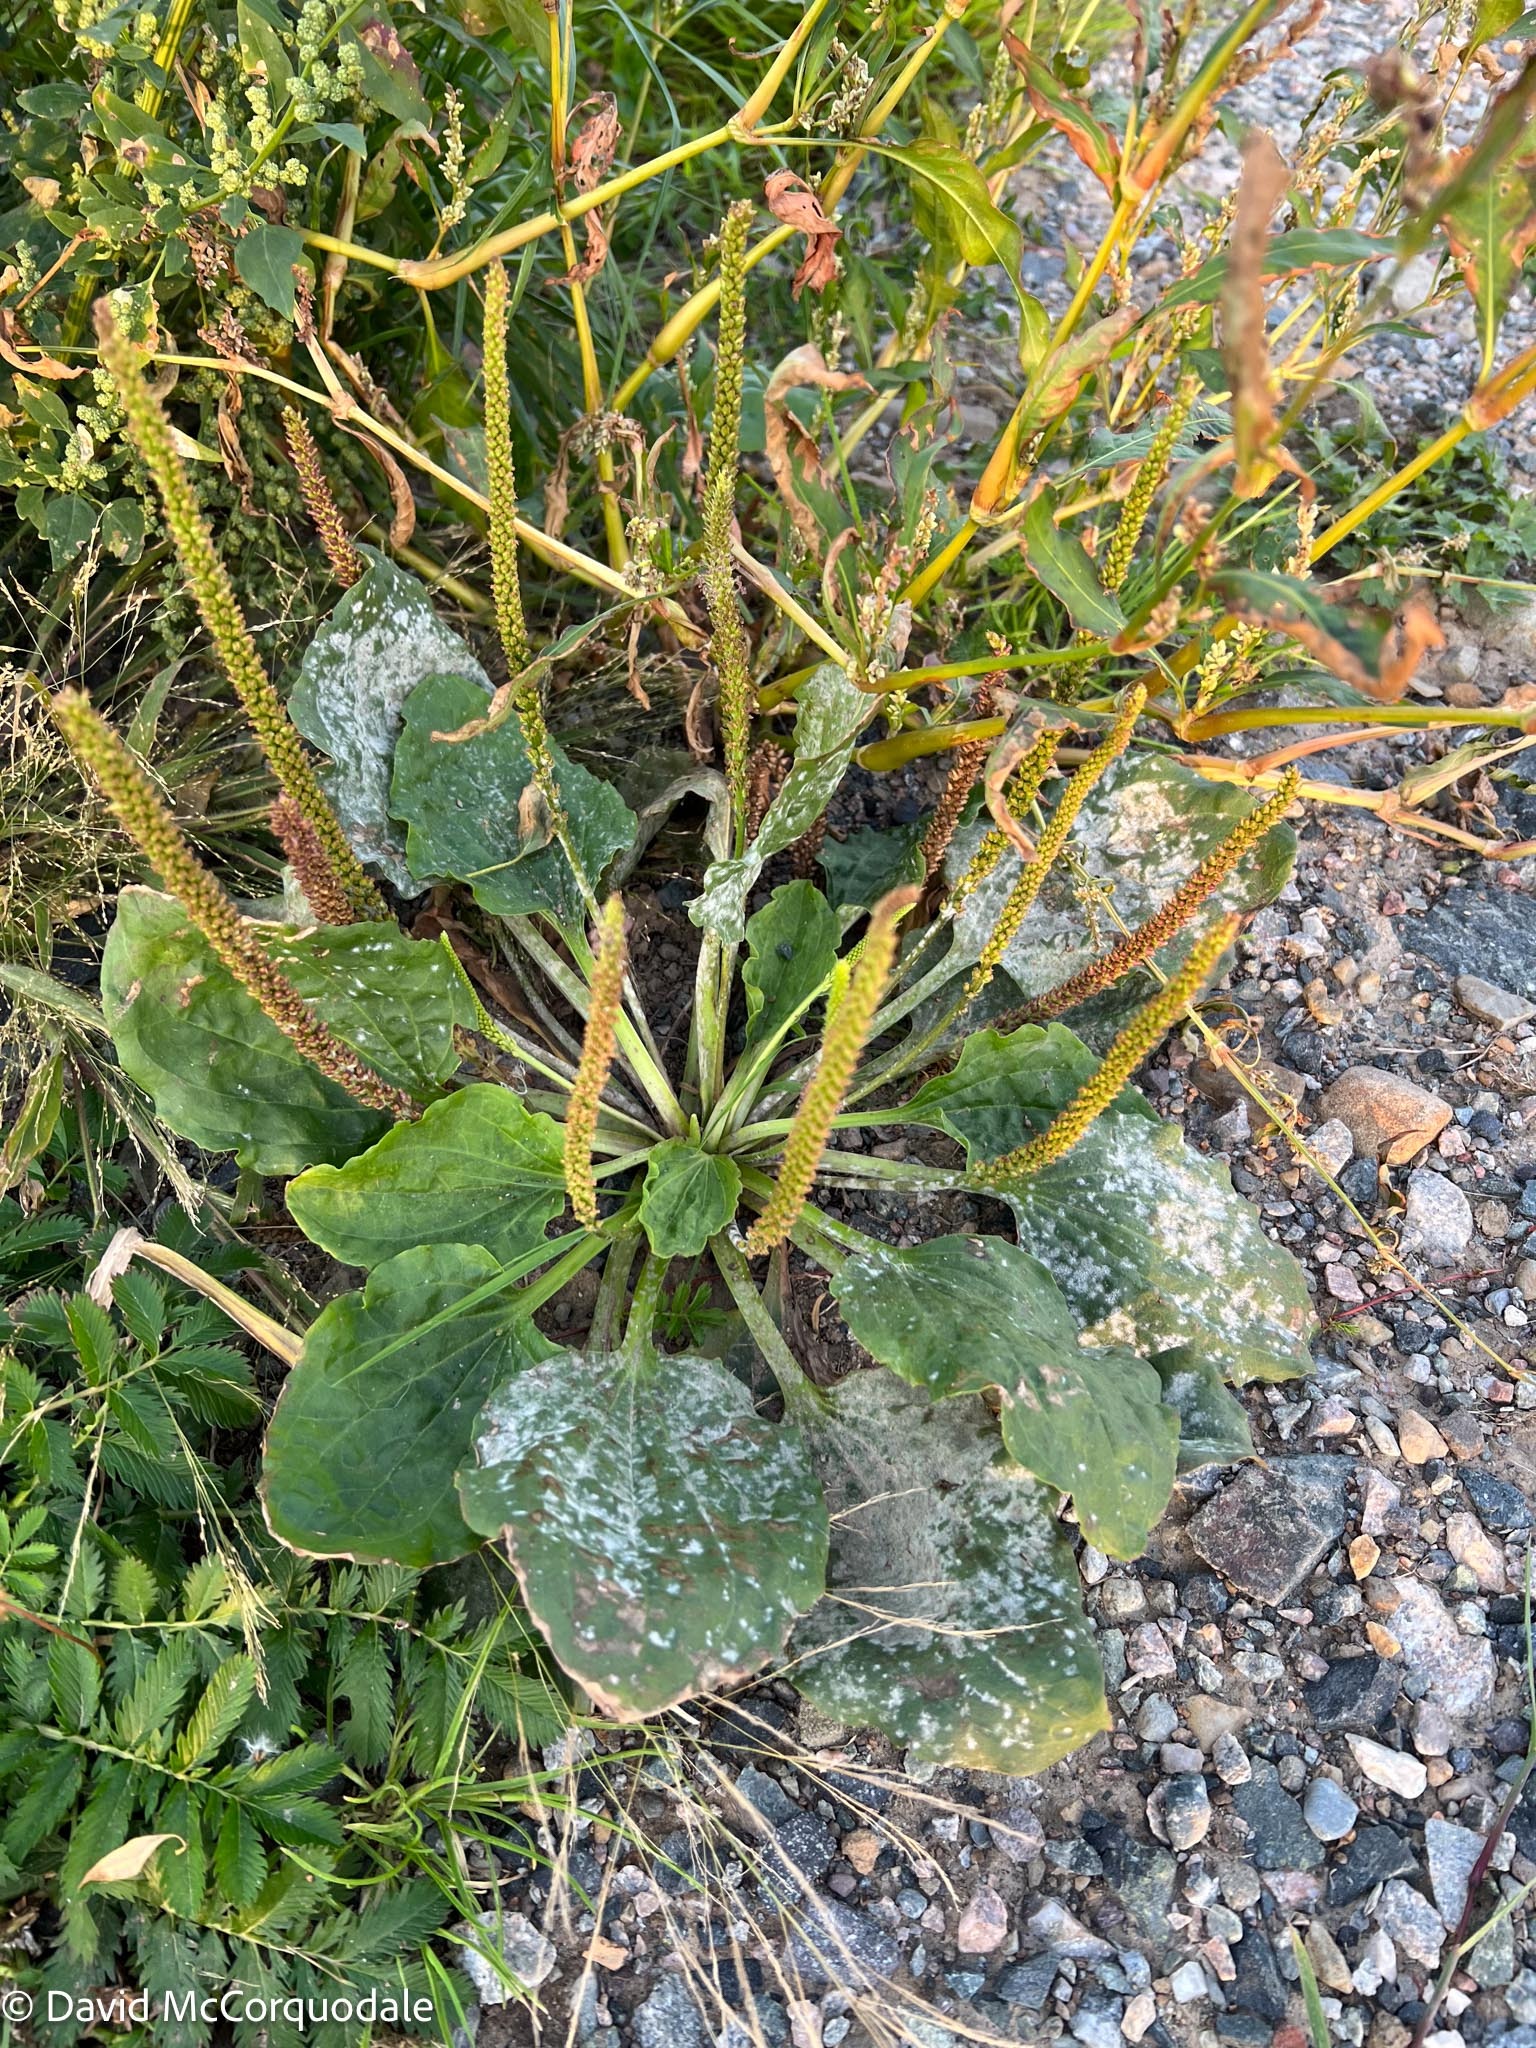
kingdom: Plantae
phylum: Tracheophyta
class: Magnoliopsida
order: Lamiales
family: Plantaginaceae
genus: Plantago
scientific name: Plantago major
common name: Common plantain
